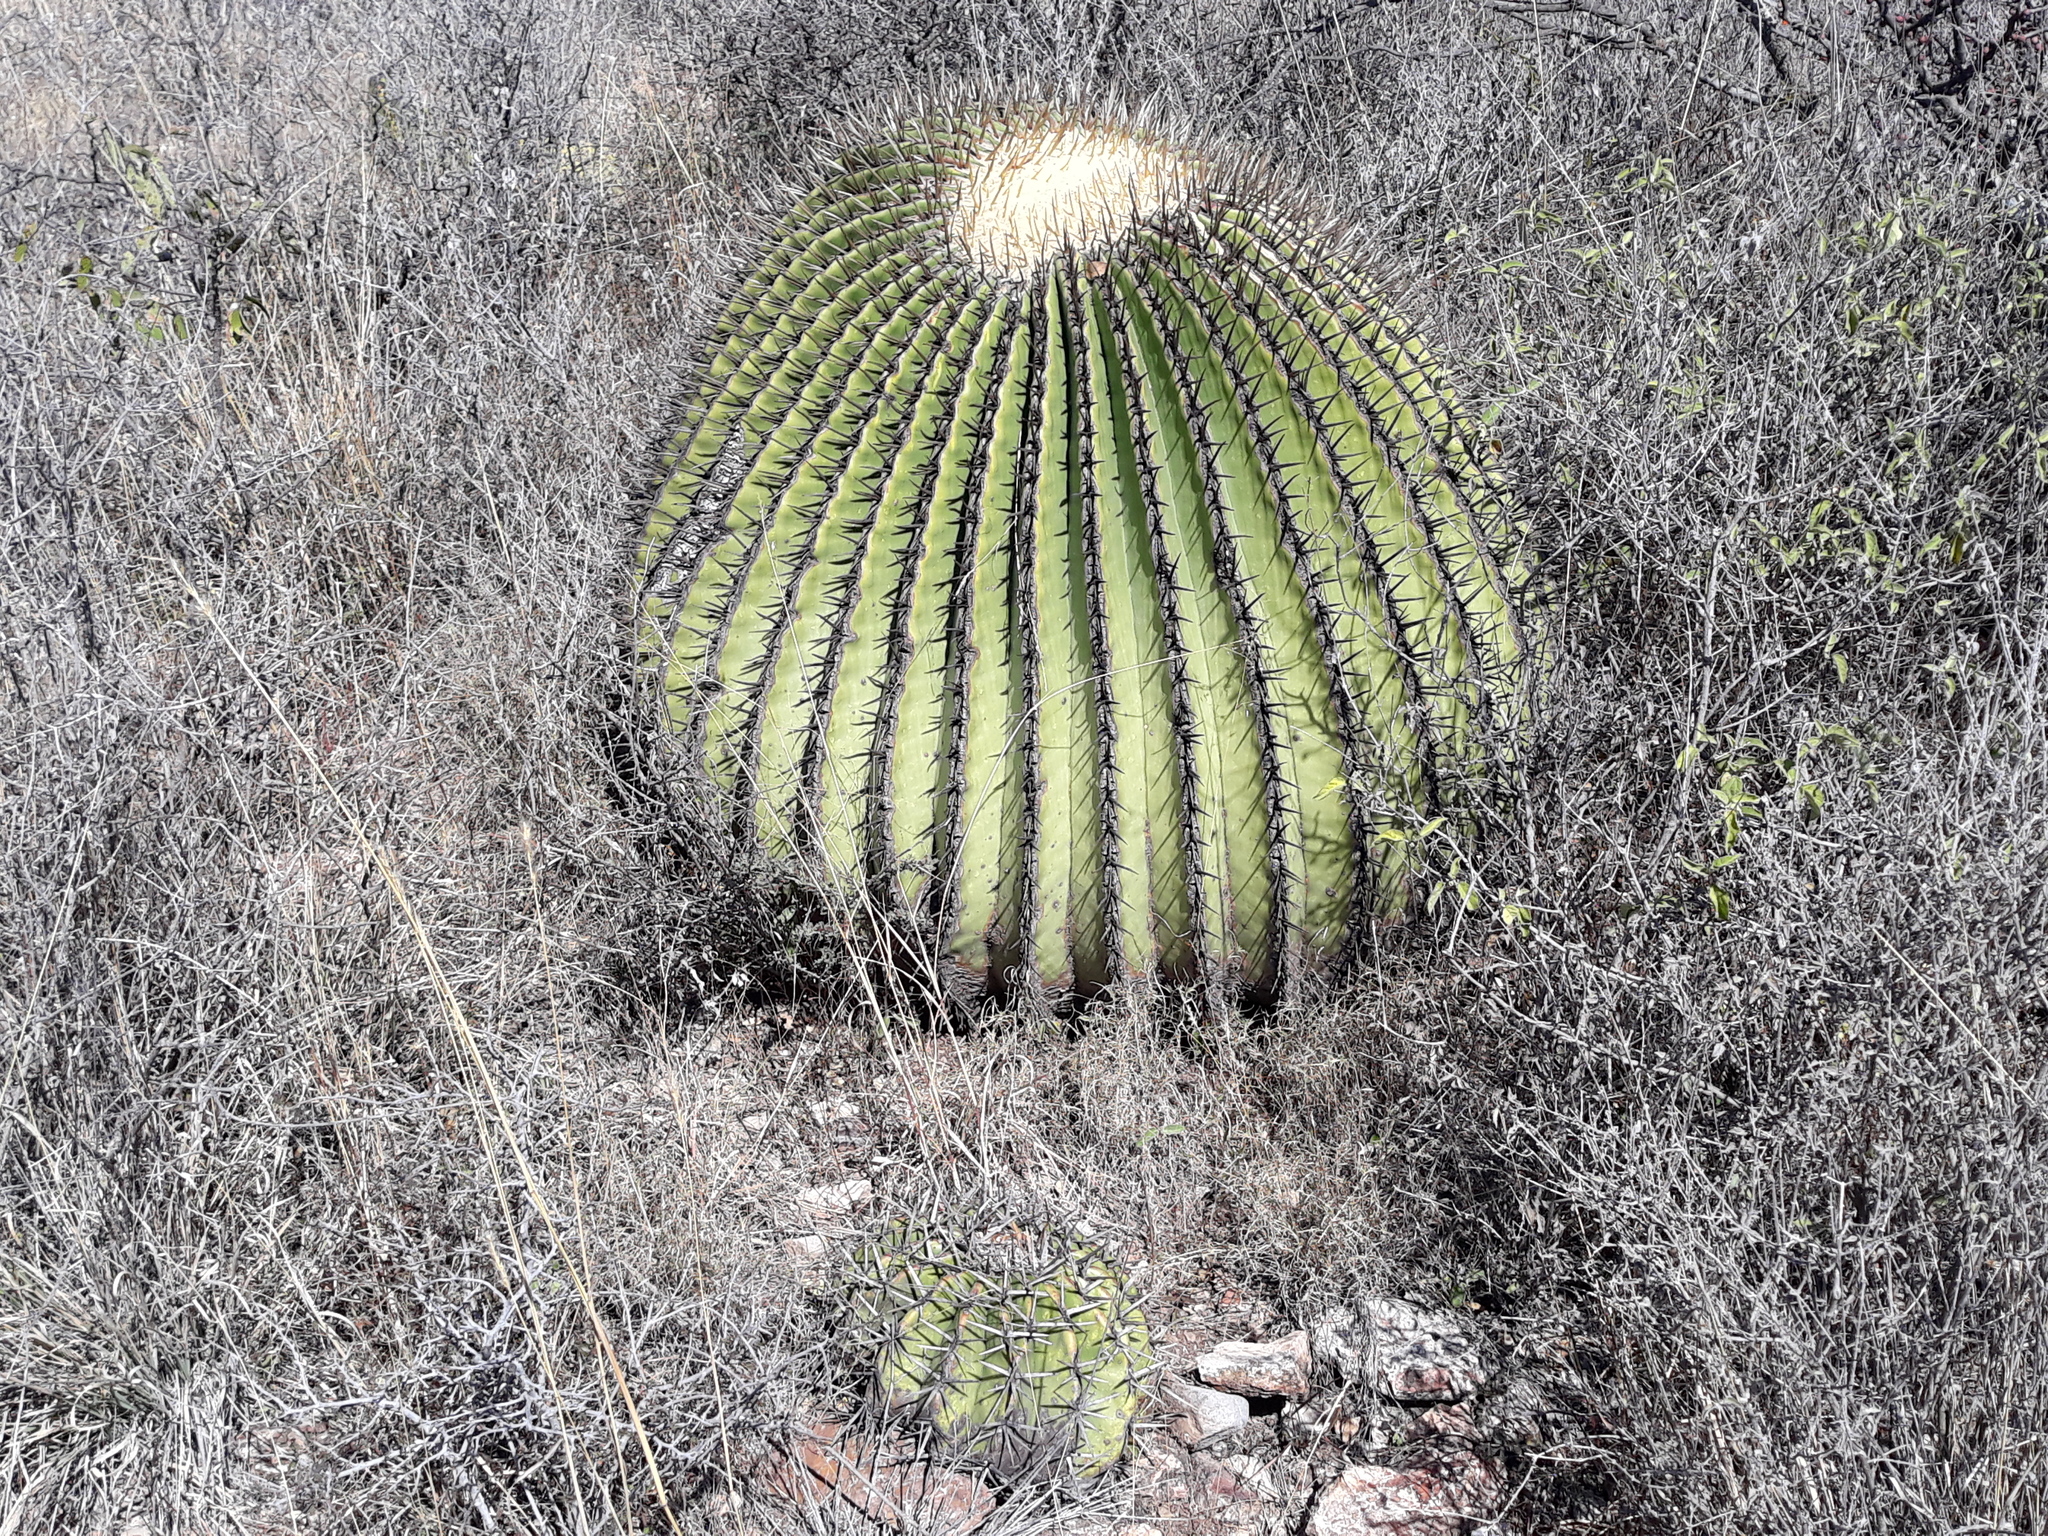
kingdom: Plantae
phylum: Tracheophyta
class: Magnoliopsida
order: Caryophyllales
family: Cactaceae
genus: Echinocactus
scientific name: Echinocactus platyacanthus
